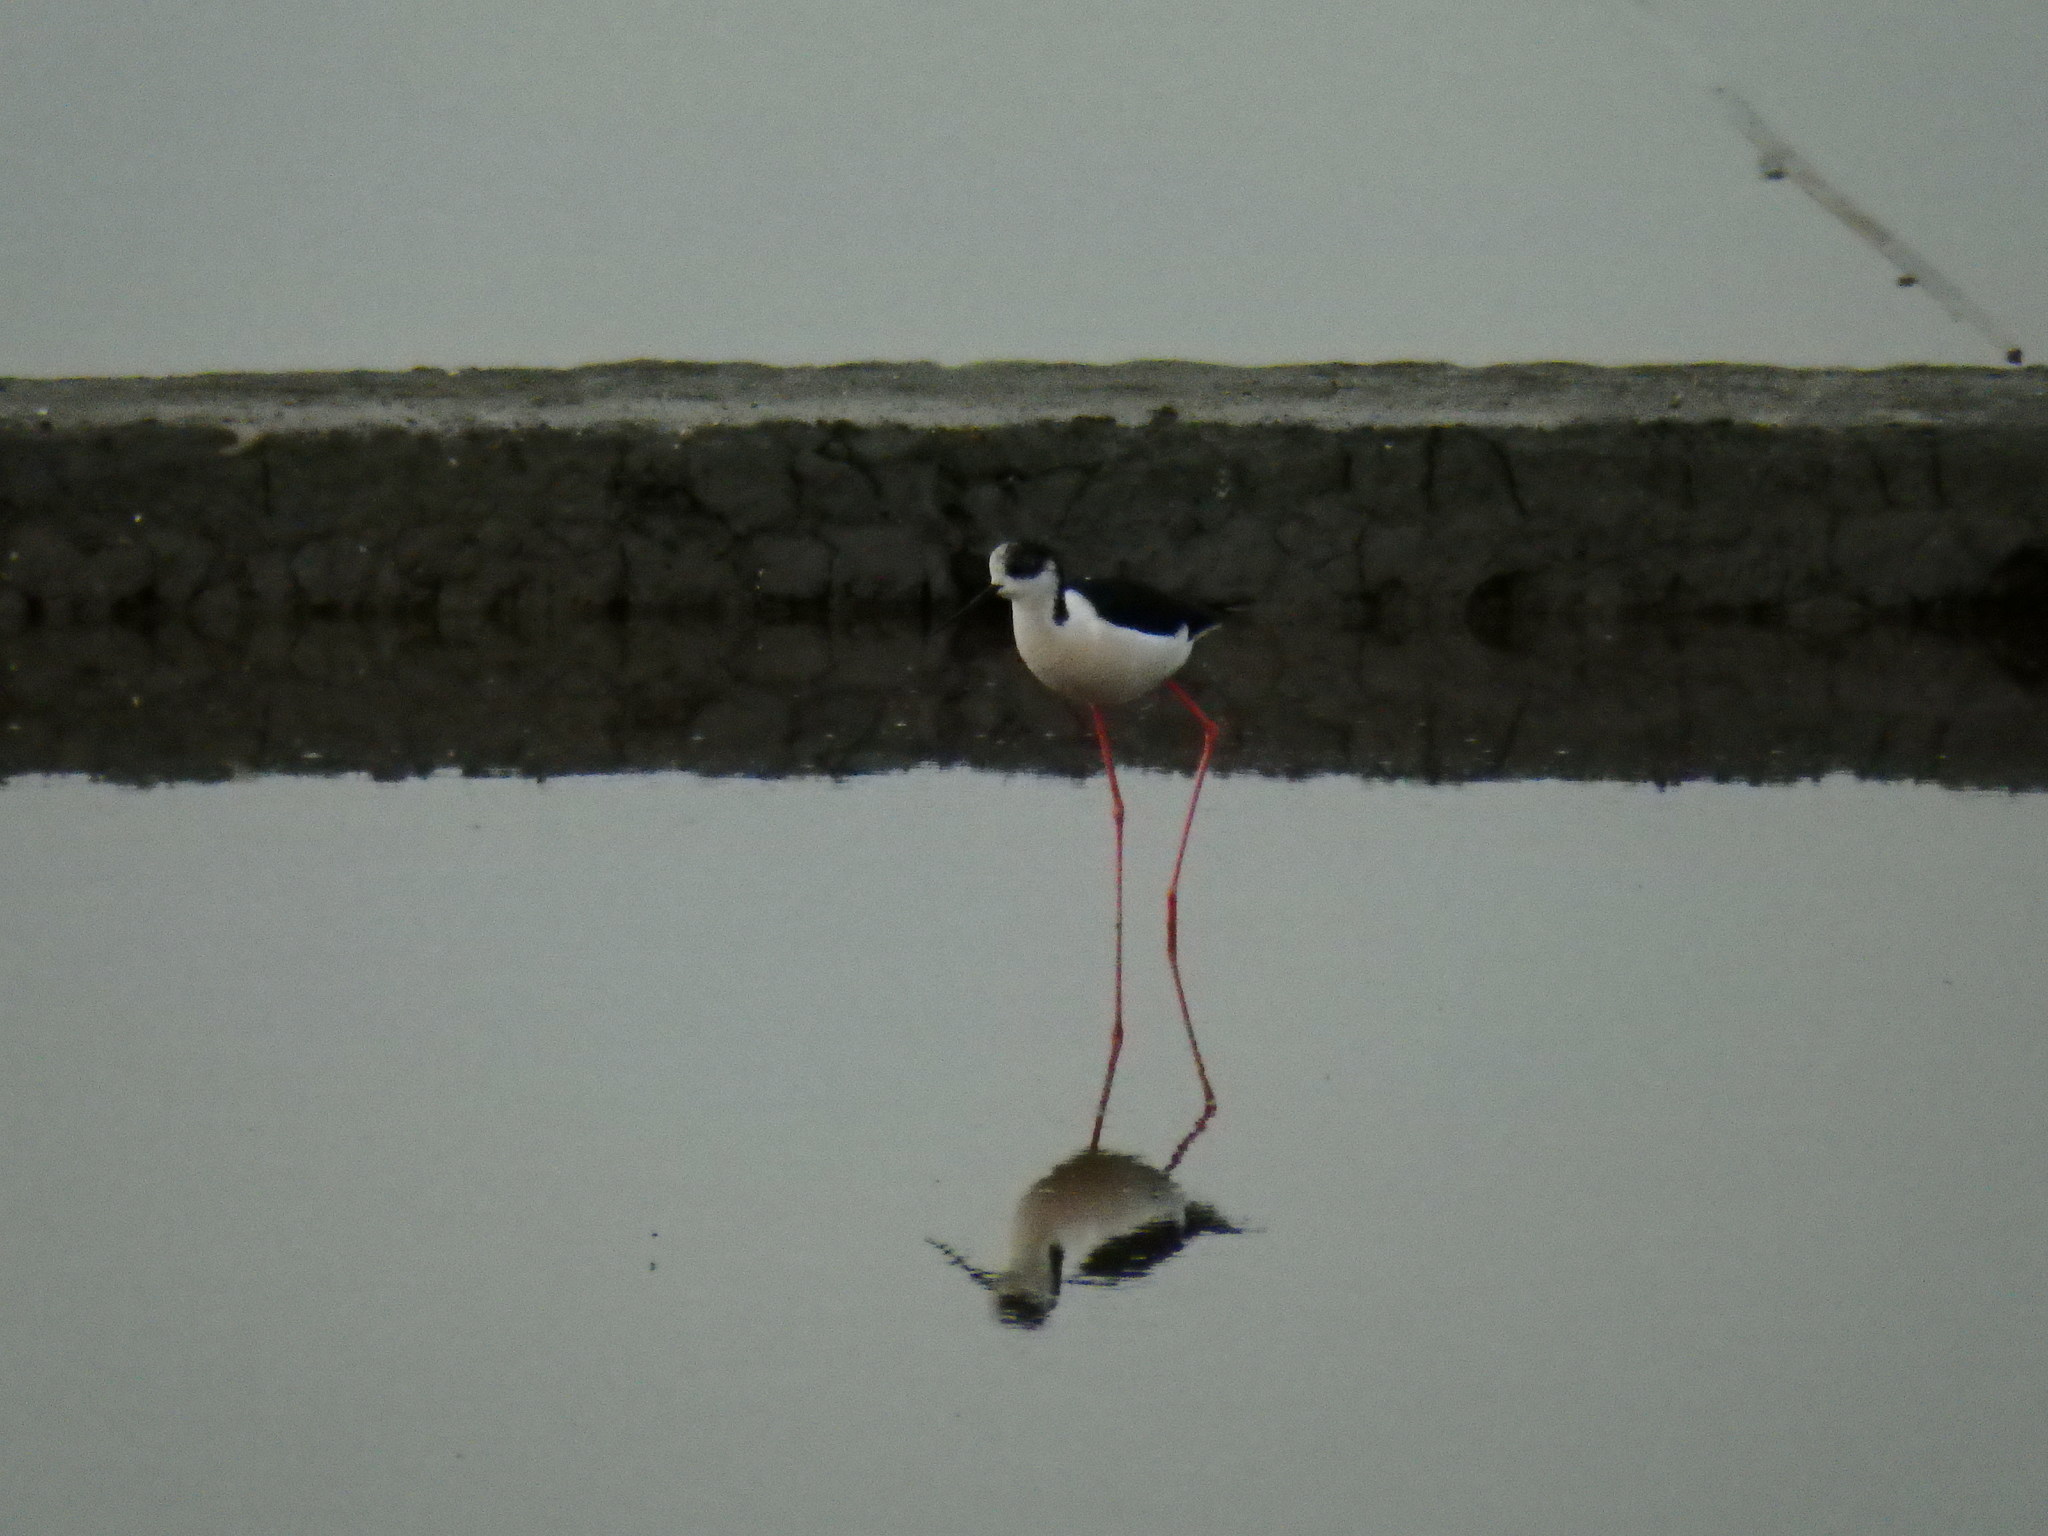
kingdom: Animalia
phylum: Chordata
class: Aves
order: Charadriiformes
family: Recurvirostridae
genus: Himantopus
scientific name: Himantopus himantopus
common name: Black-winged stilt
